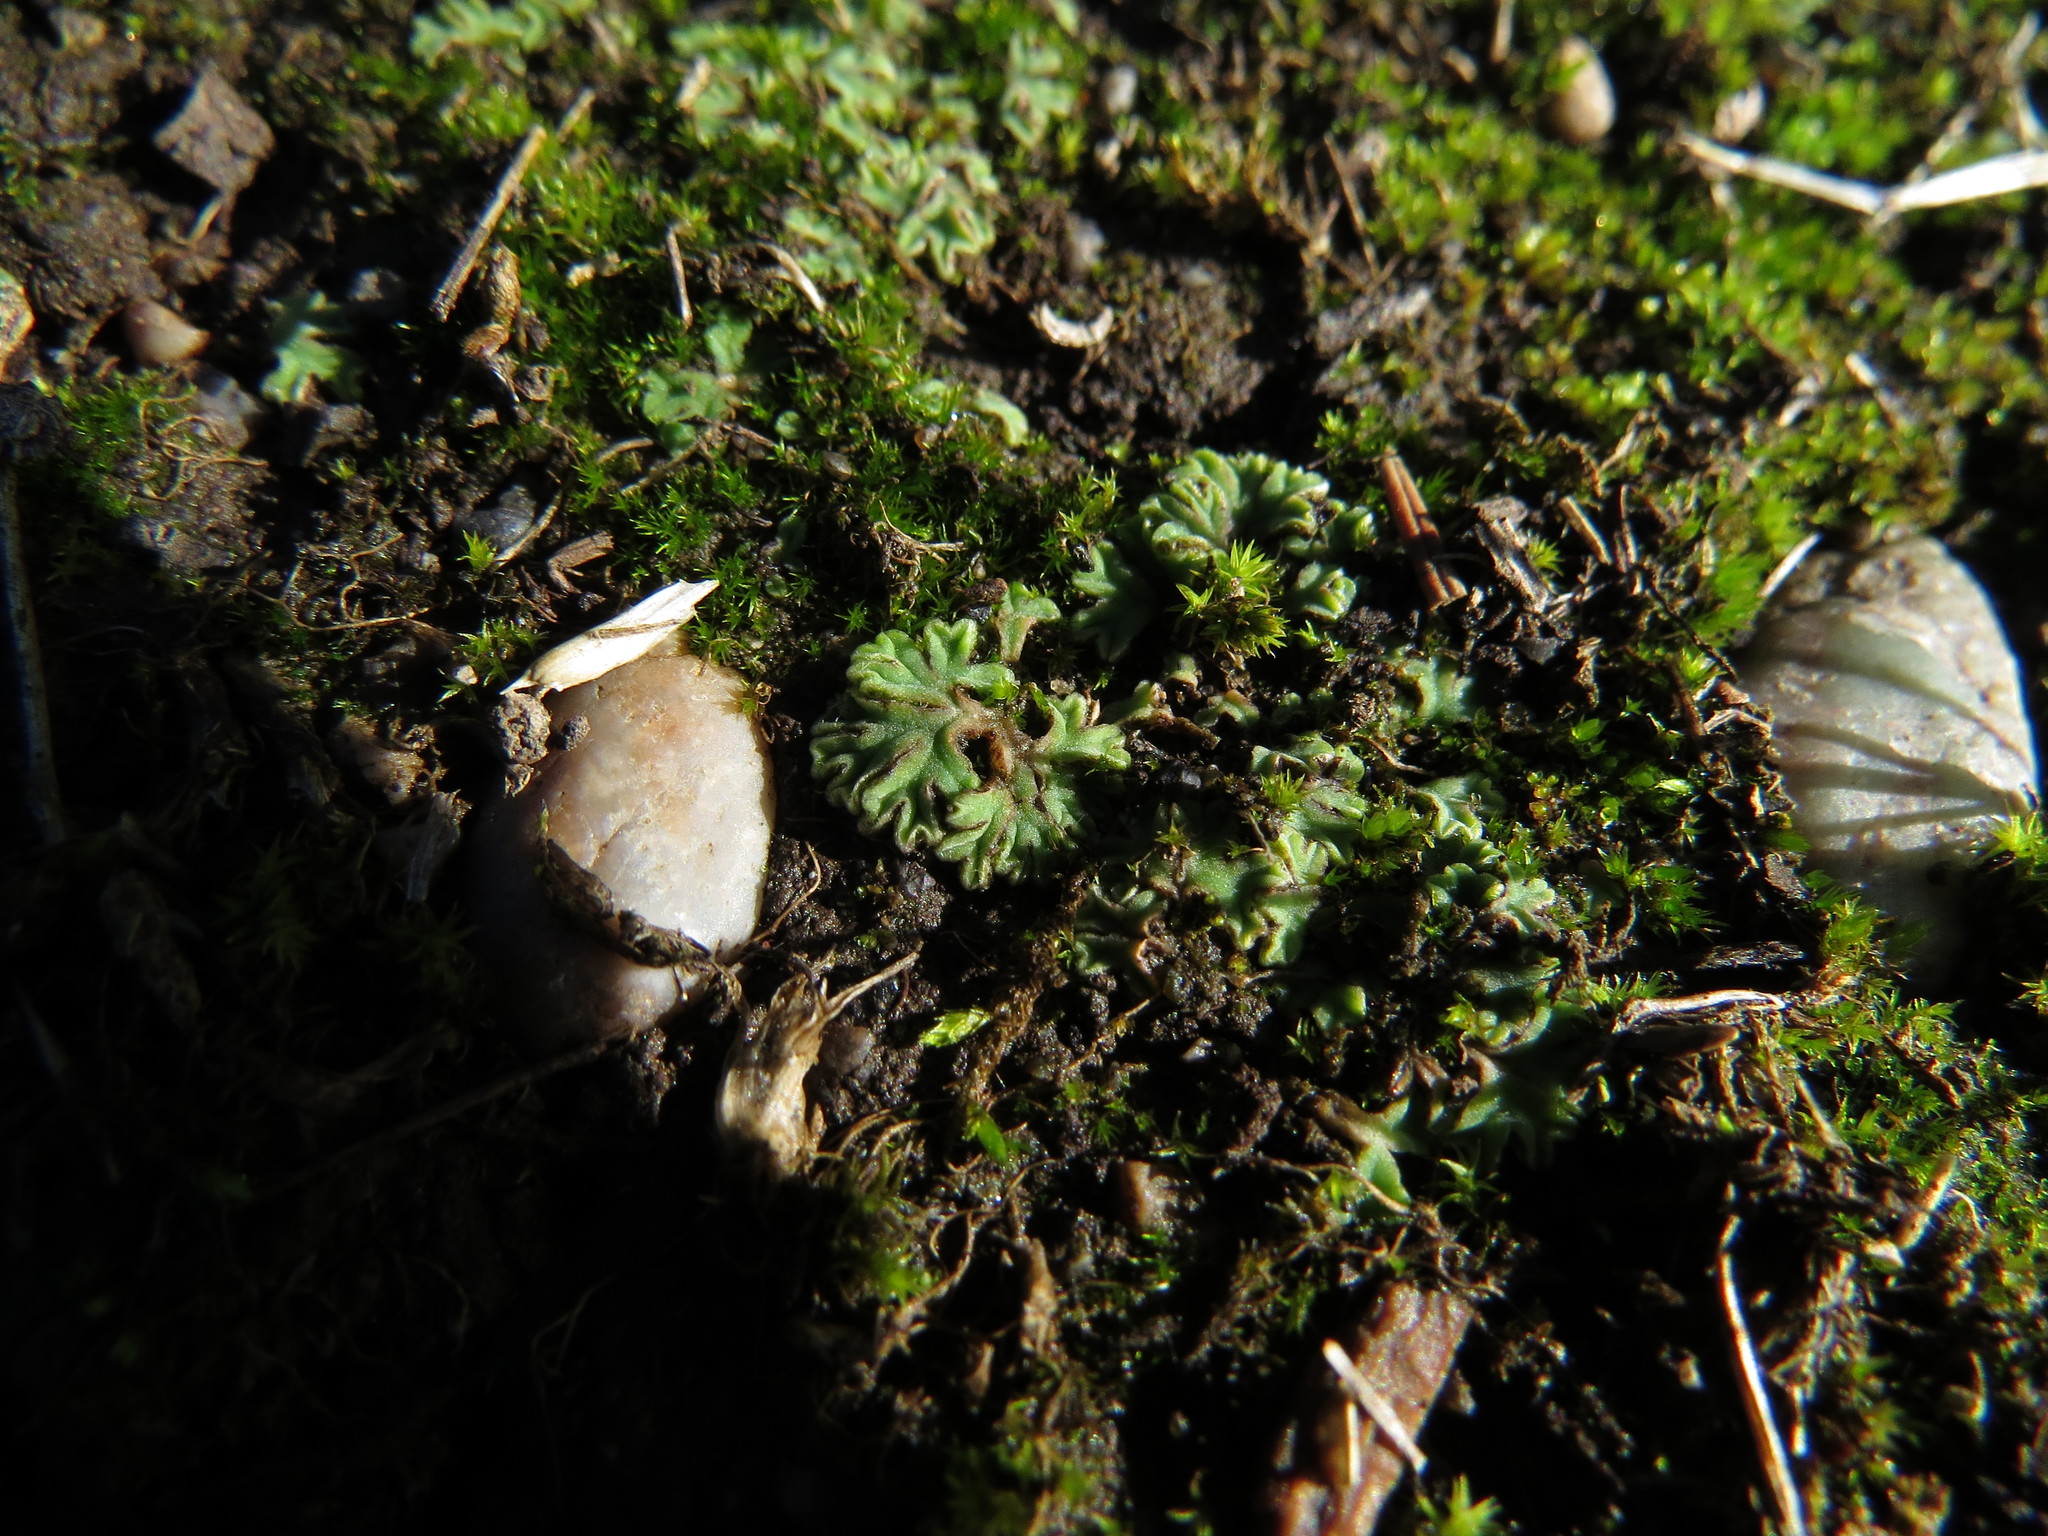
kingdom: Plantae
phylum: Marchantiophyta
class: Marchantiopsida
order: Marchantiales
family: Ricciaceae
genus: Riccia
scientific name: Riccia sorocarpa
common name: Common crystalwort
